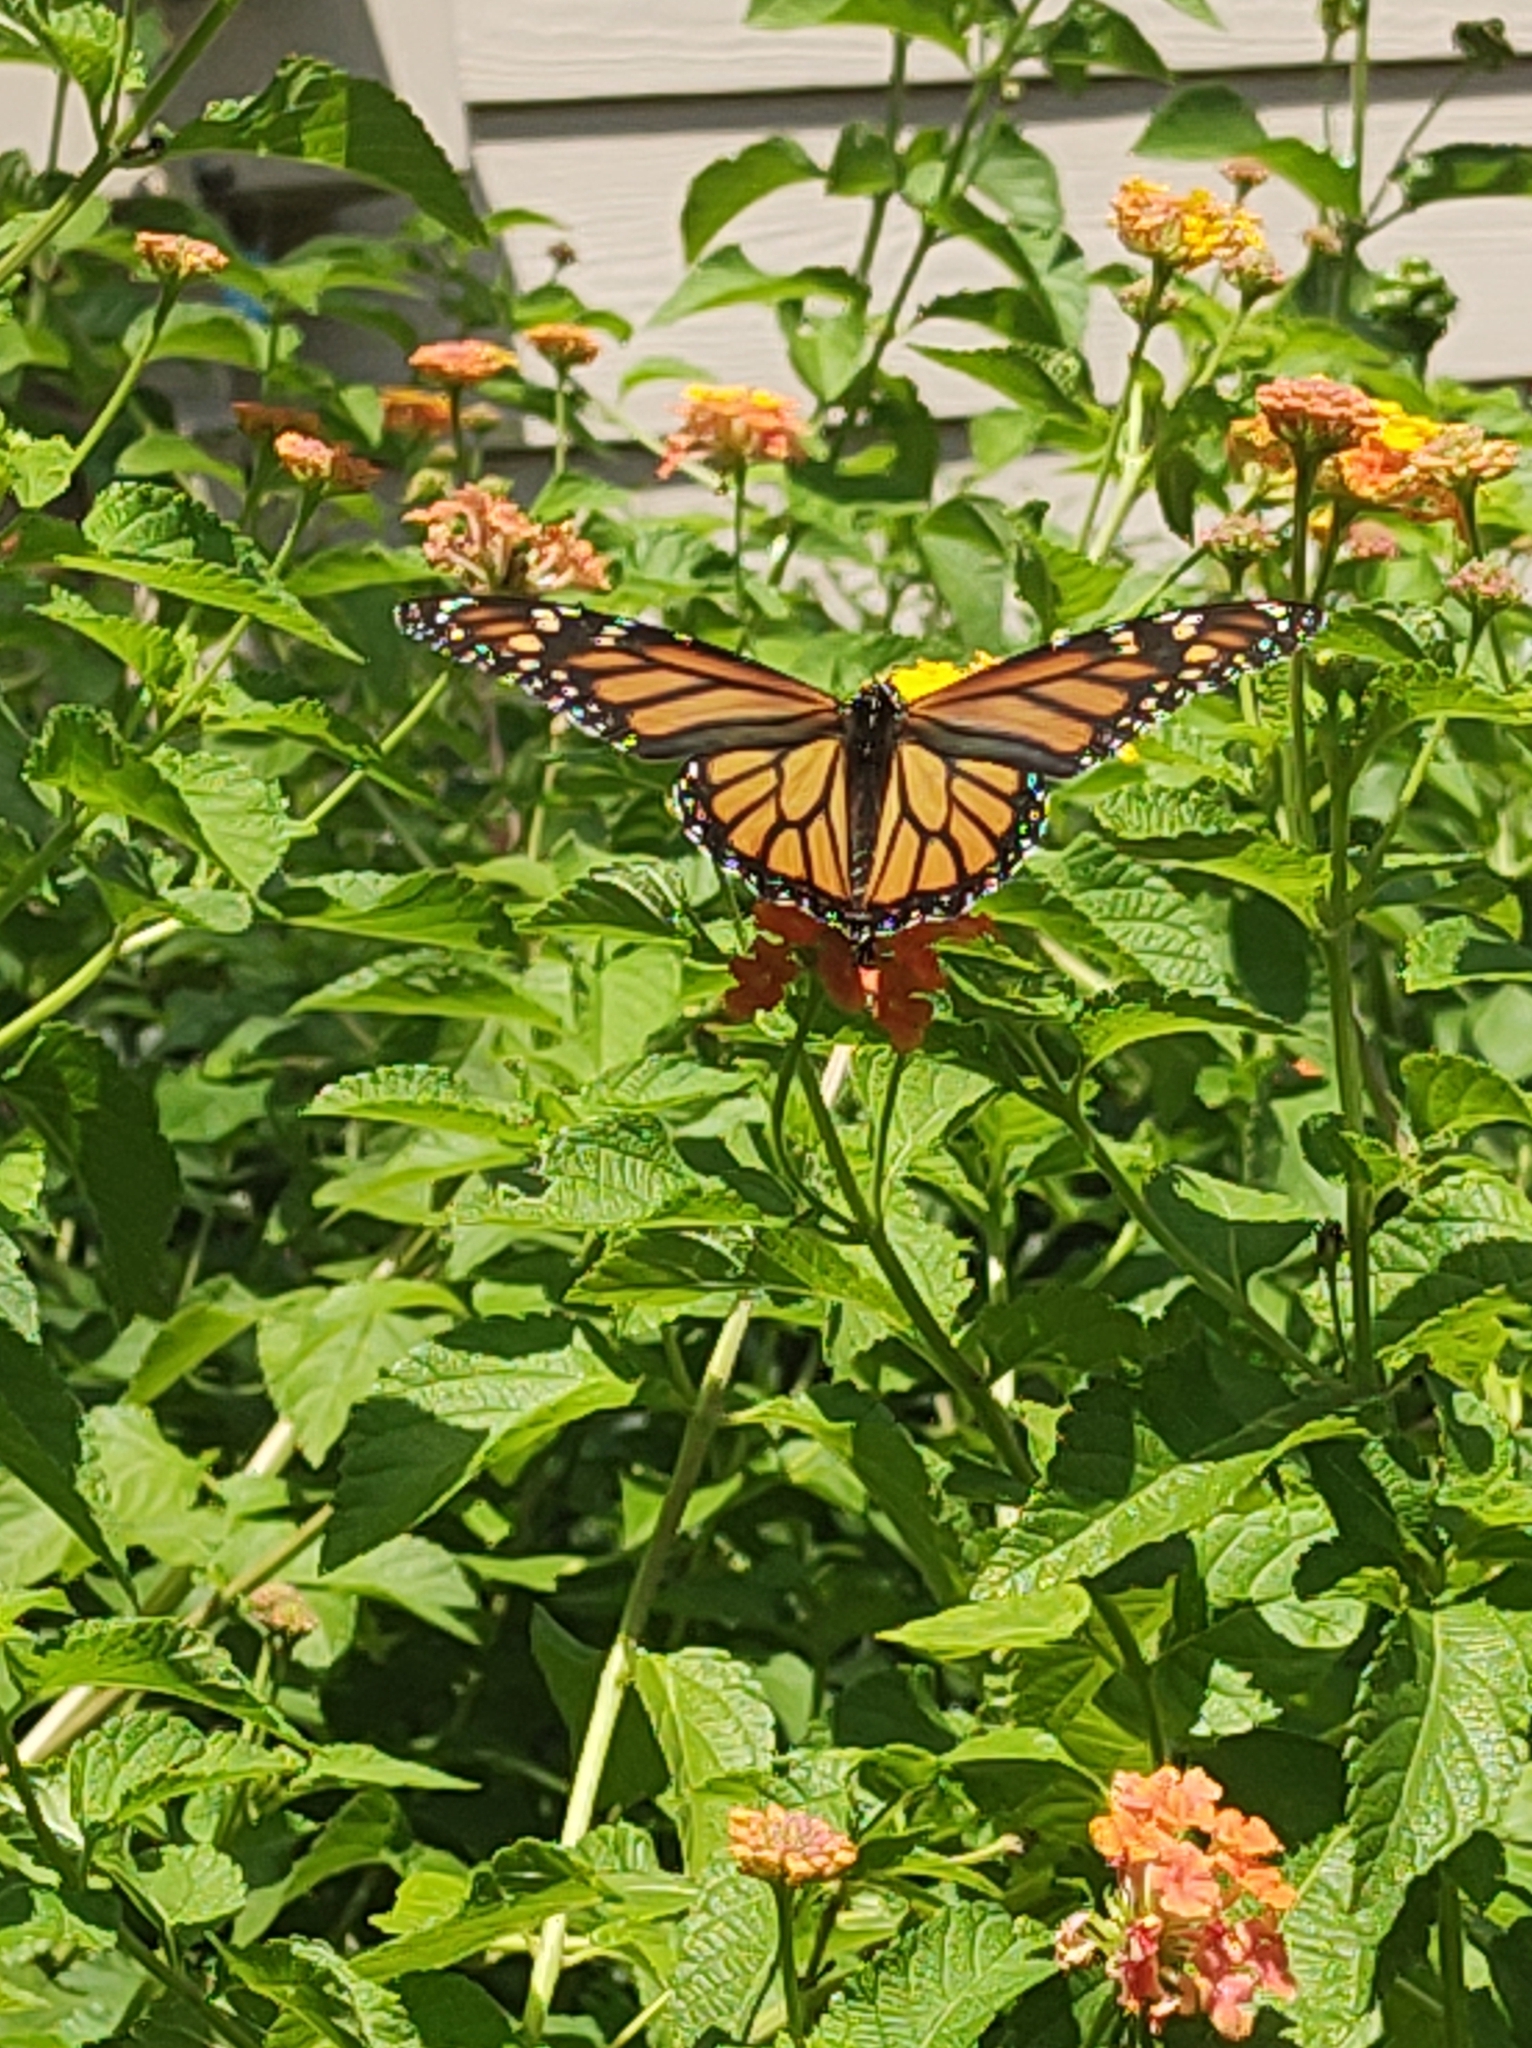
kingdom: Animalia
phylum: Arthropoda
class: Insecta
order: Lepidoptera
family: Nymphalidae
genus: Danaus
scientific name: Danaus plexippus
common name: Monarch
